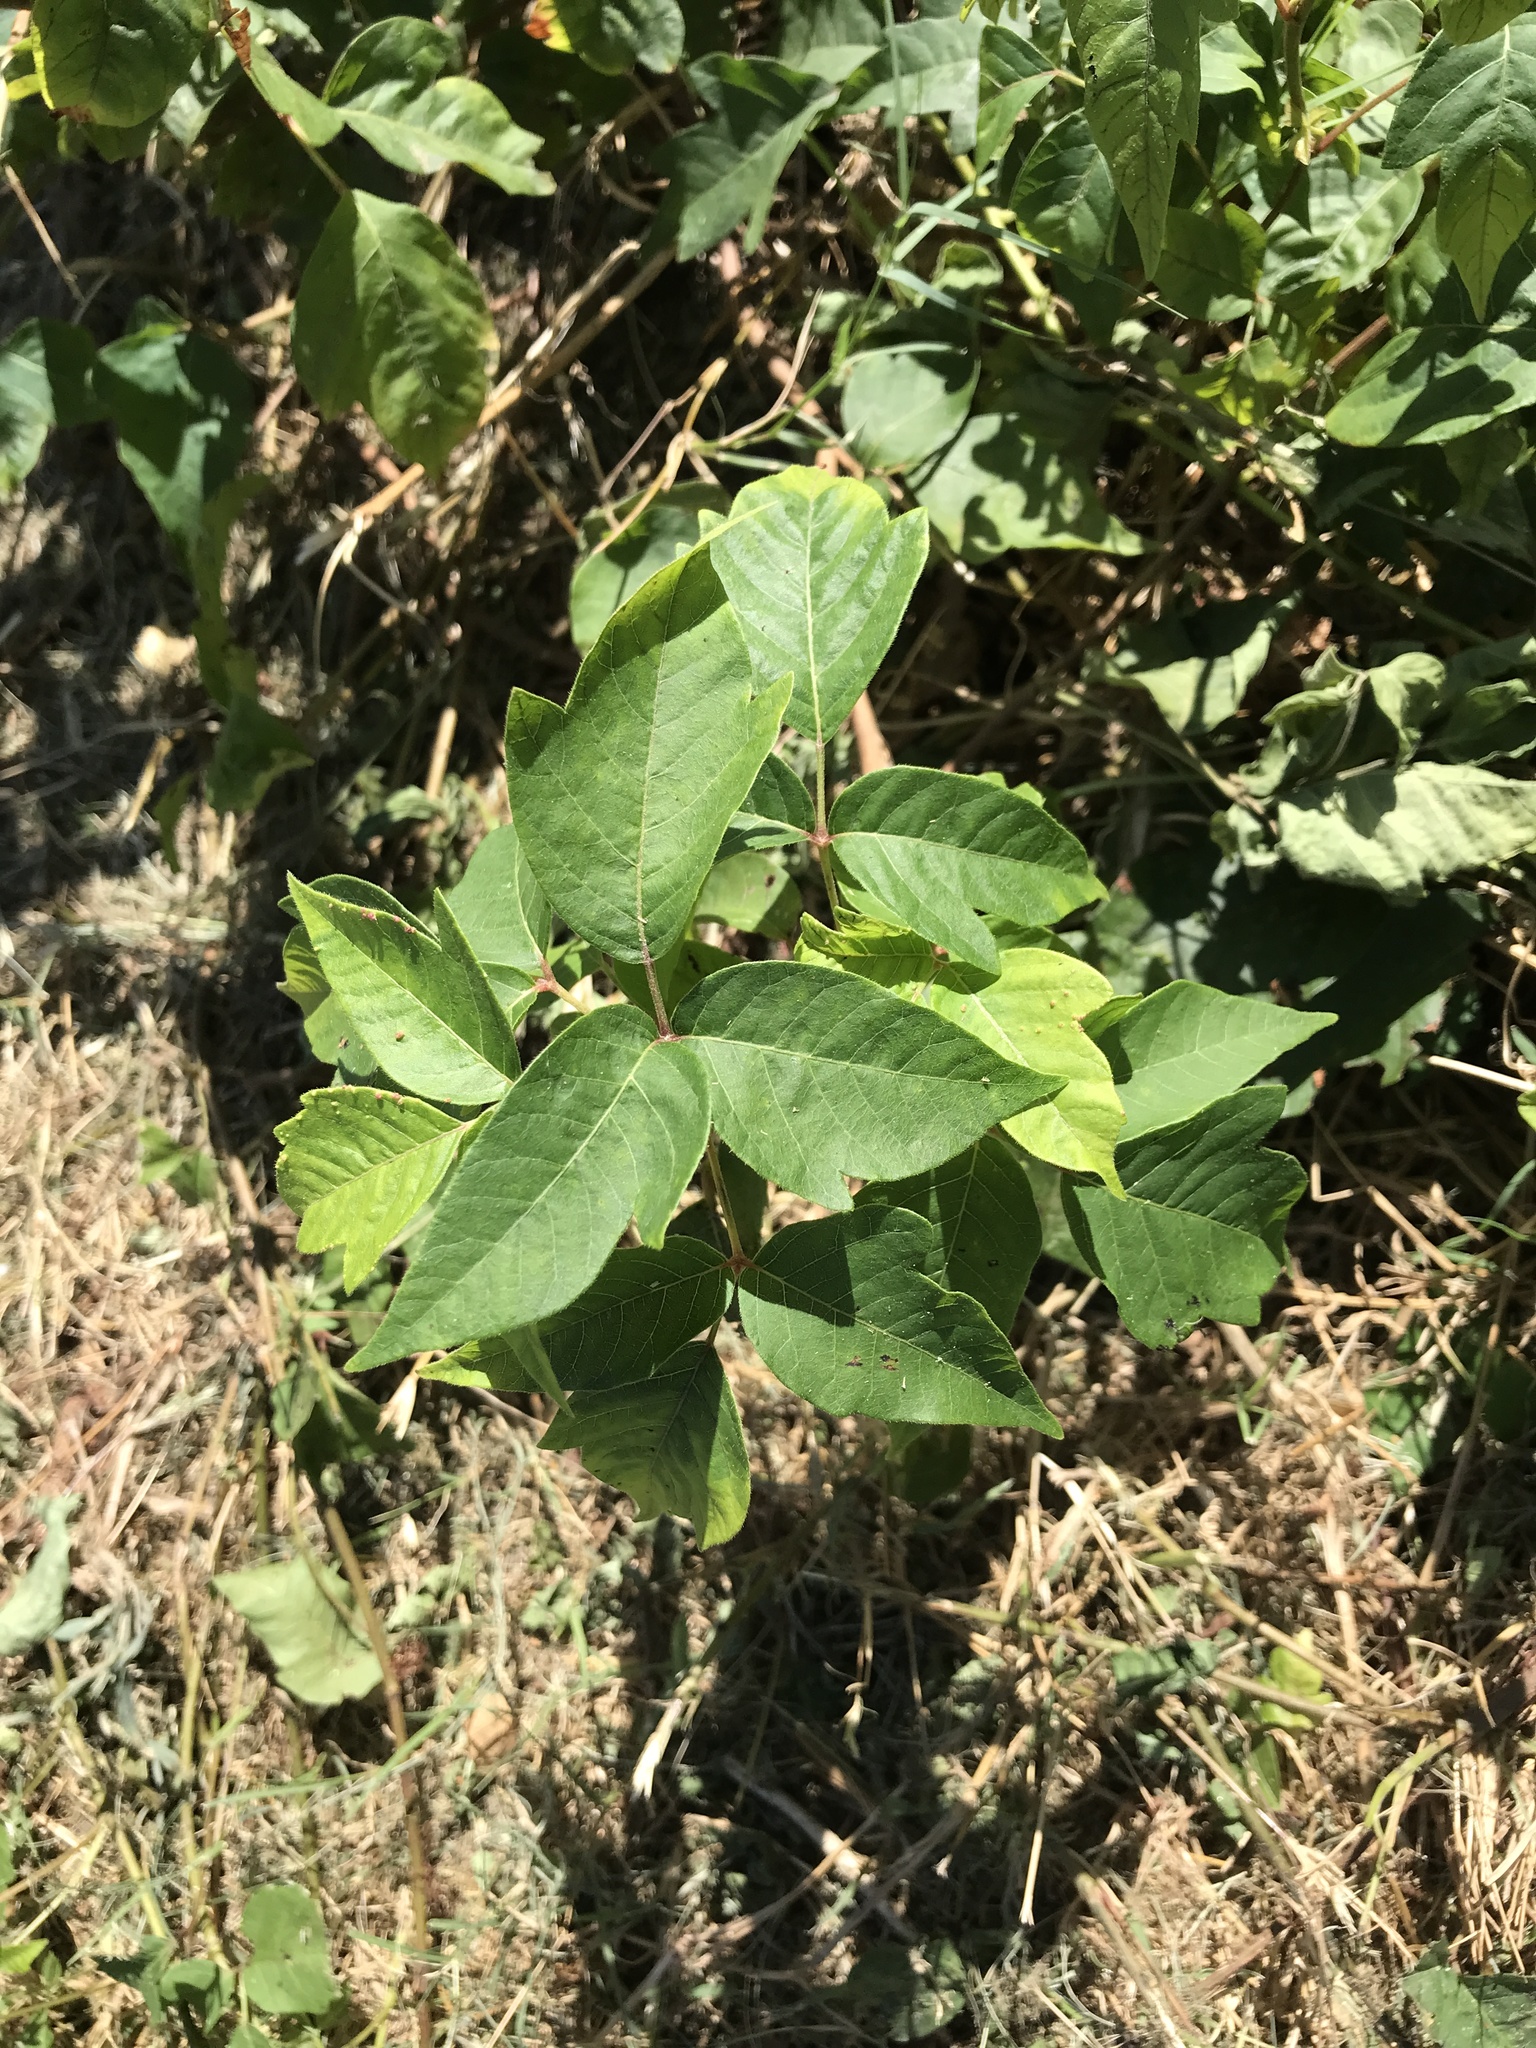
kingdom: Plantae
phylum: Tracheophyta
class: Magnoliopsida
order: Sapindales
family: Anacardiaceae
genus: Toxicodendron
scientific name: Toxicodendron radicans
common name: Poison ivy
